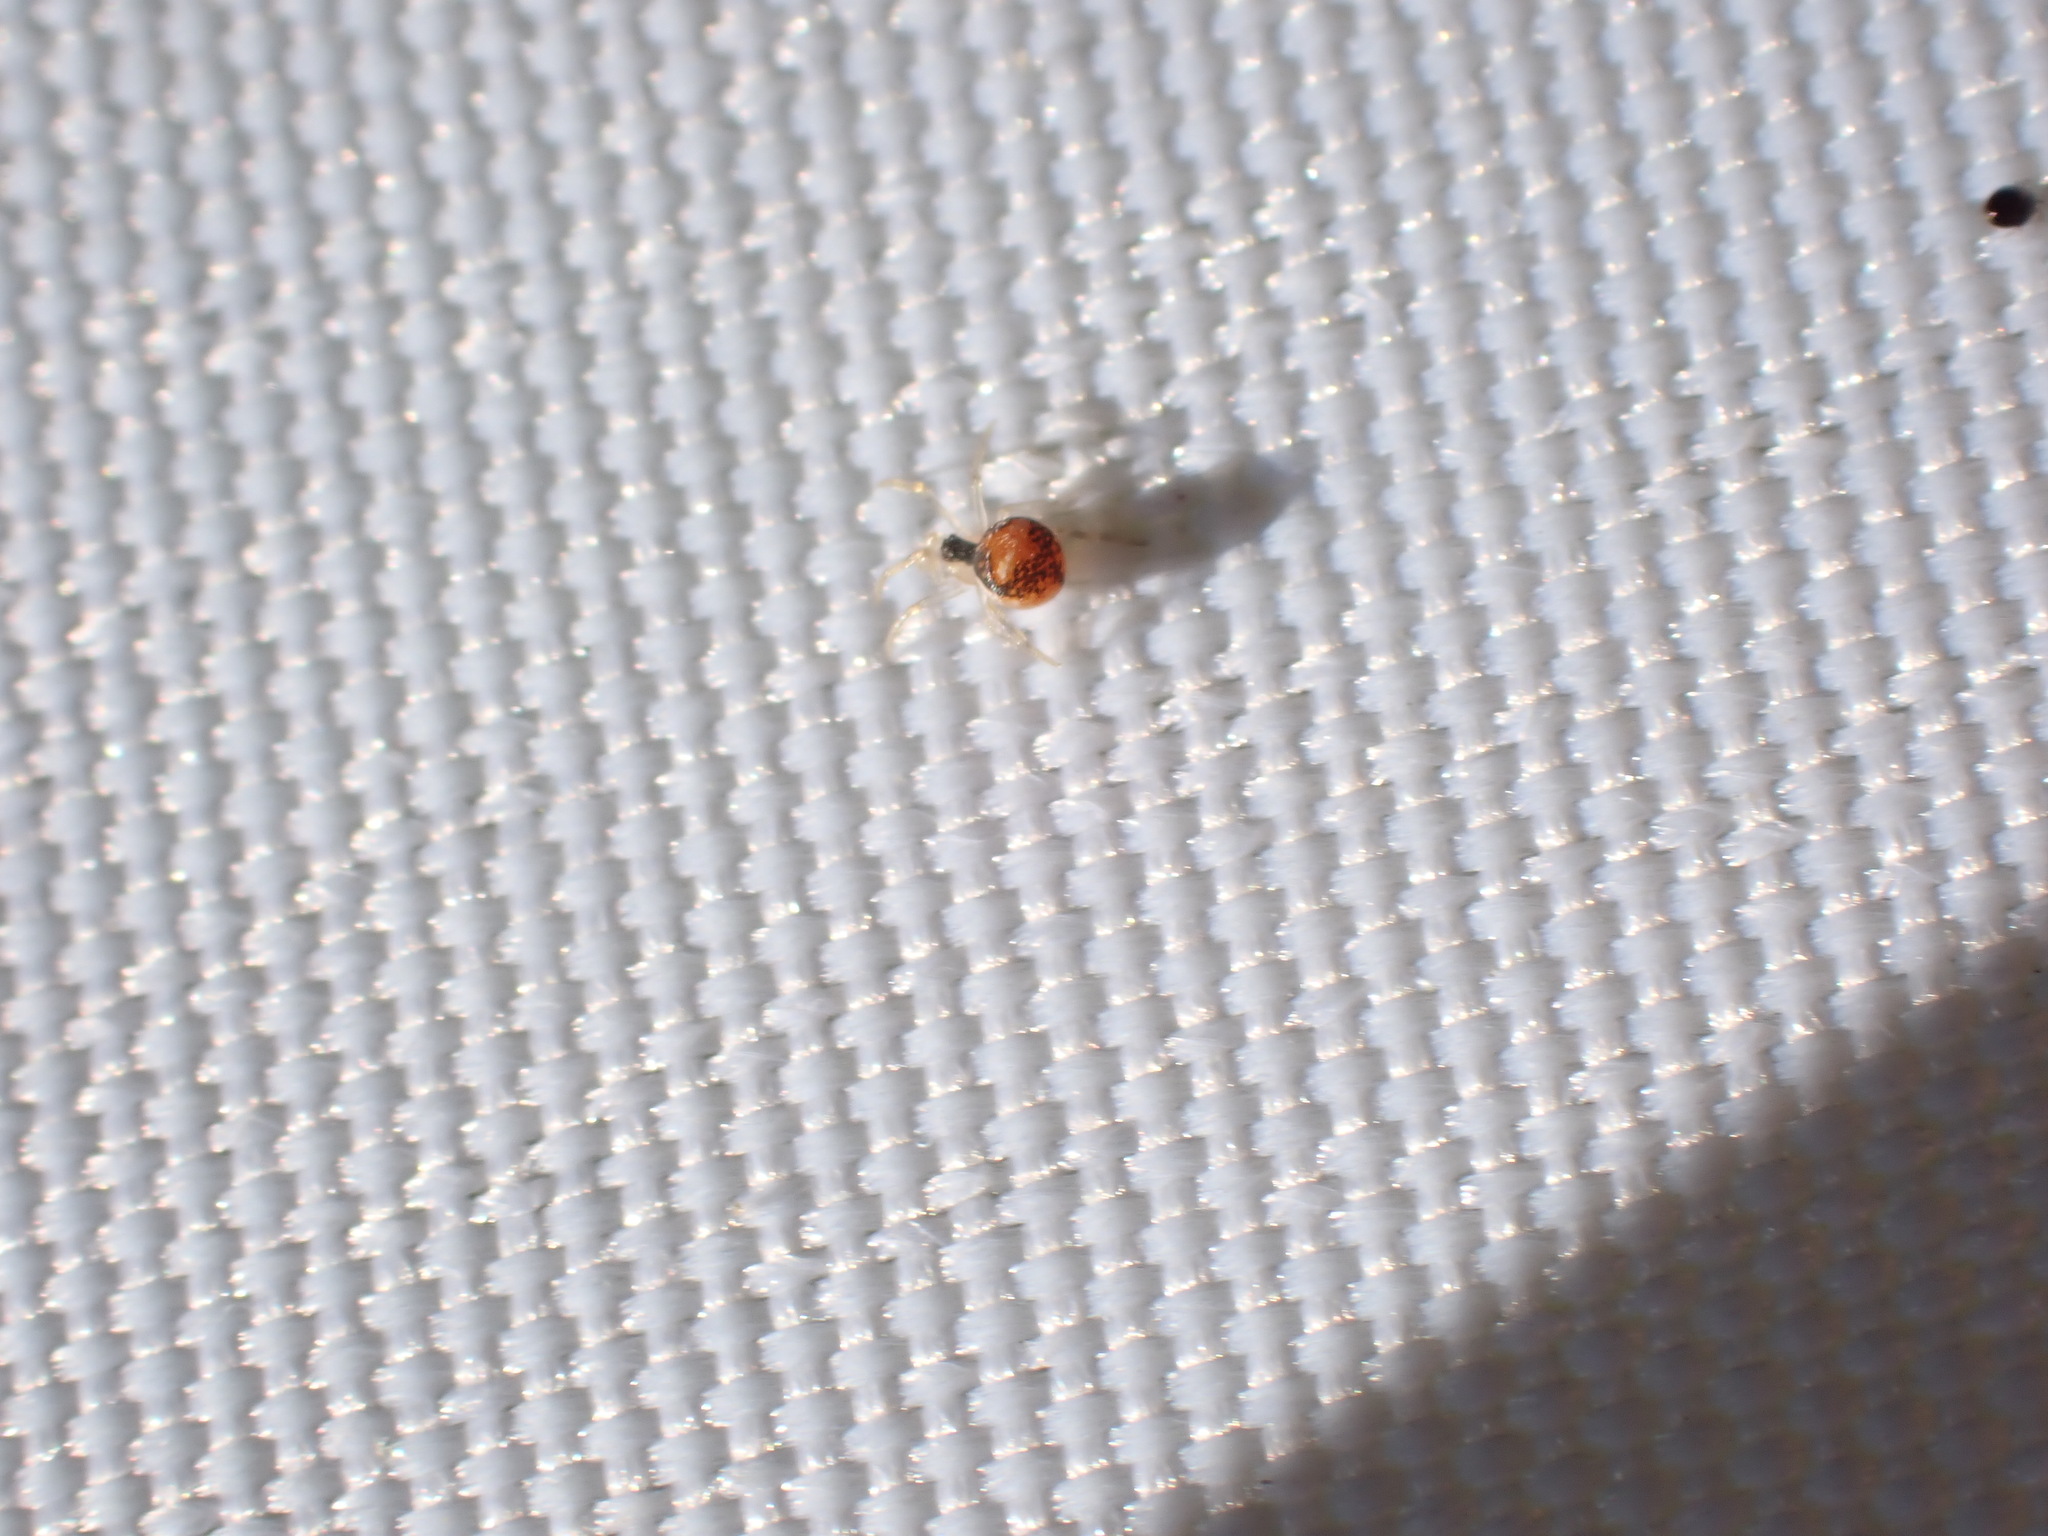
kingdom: Animalia
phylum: Arthropoda
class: Arachnida
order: Araneae
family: Theridiidae
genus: Paidiscura
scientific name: Paidiscura pallens
